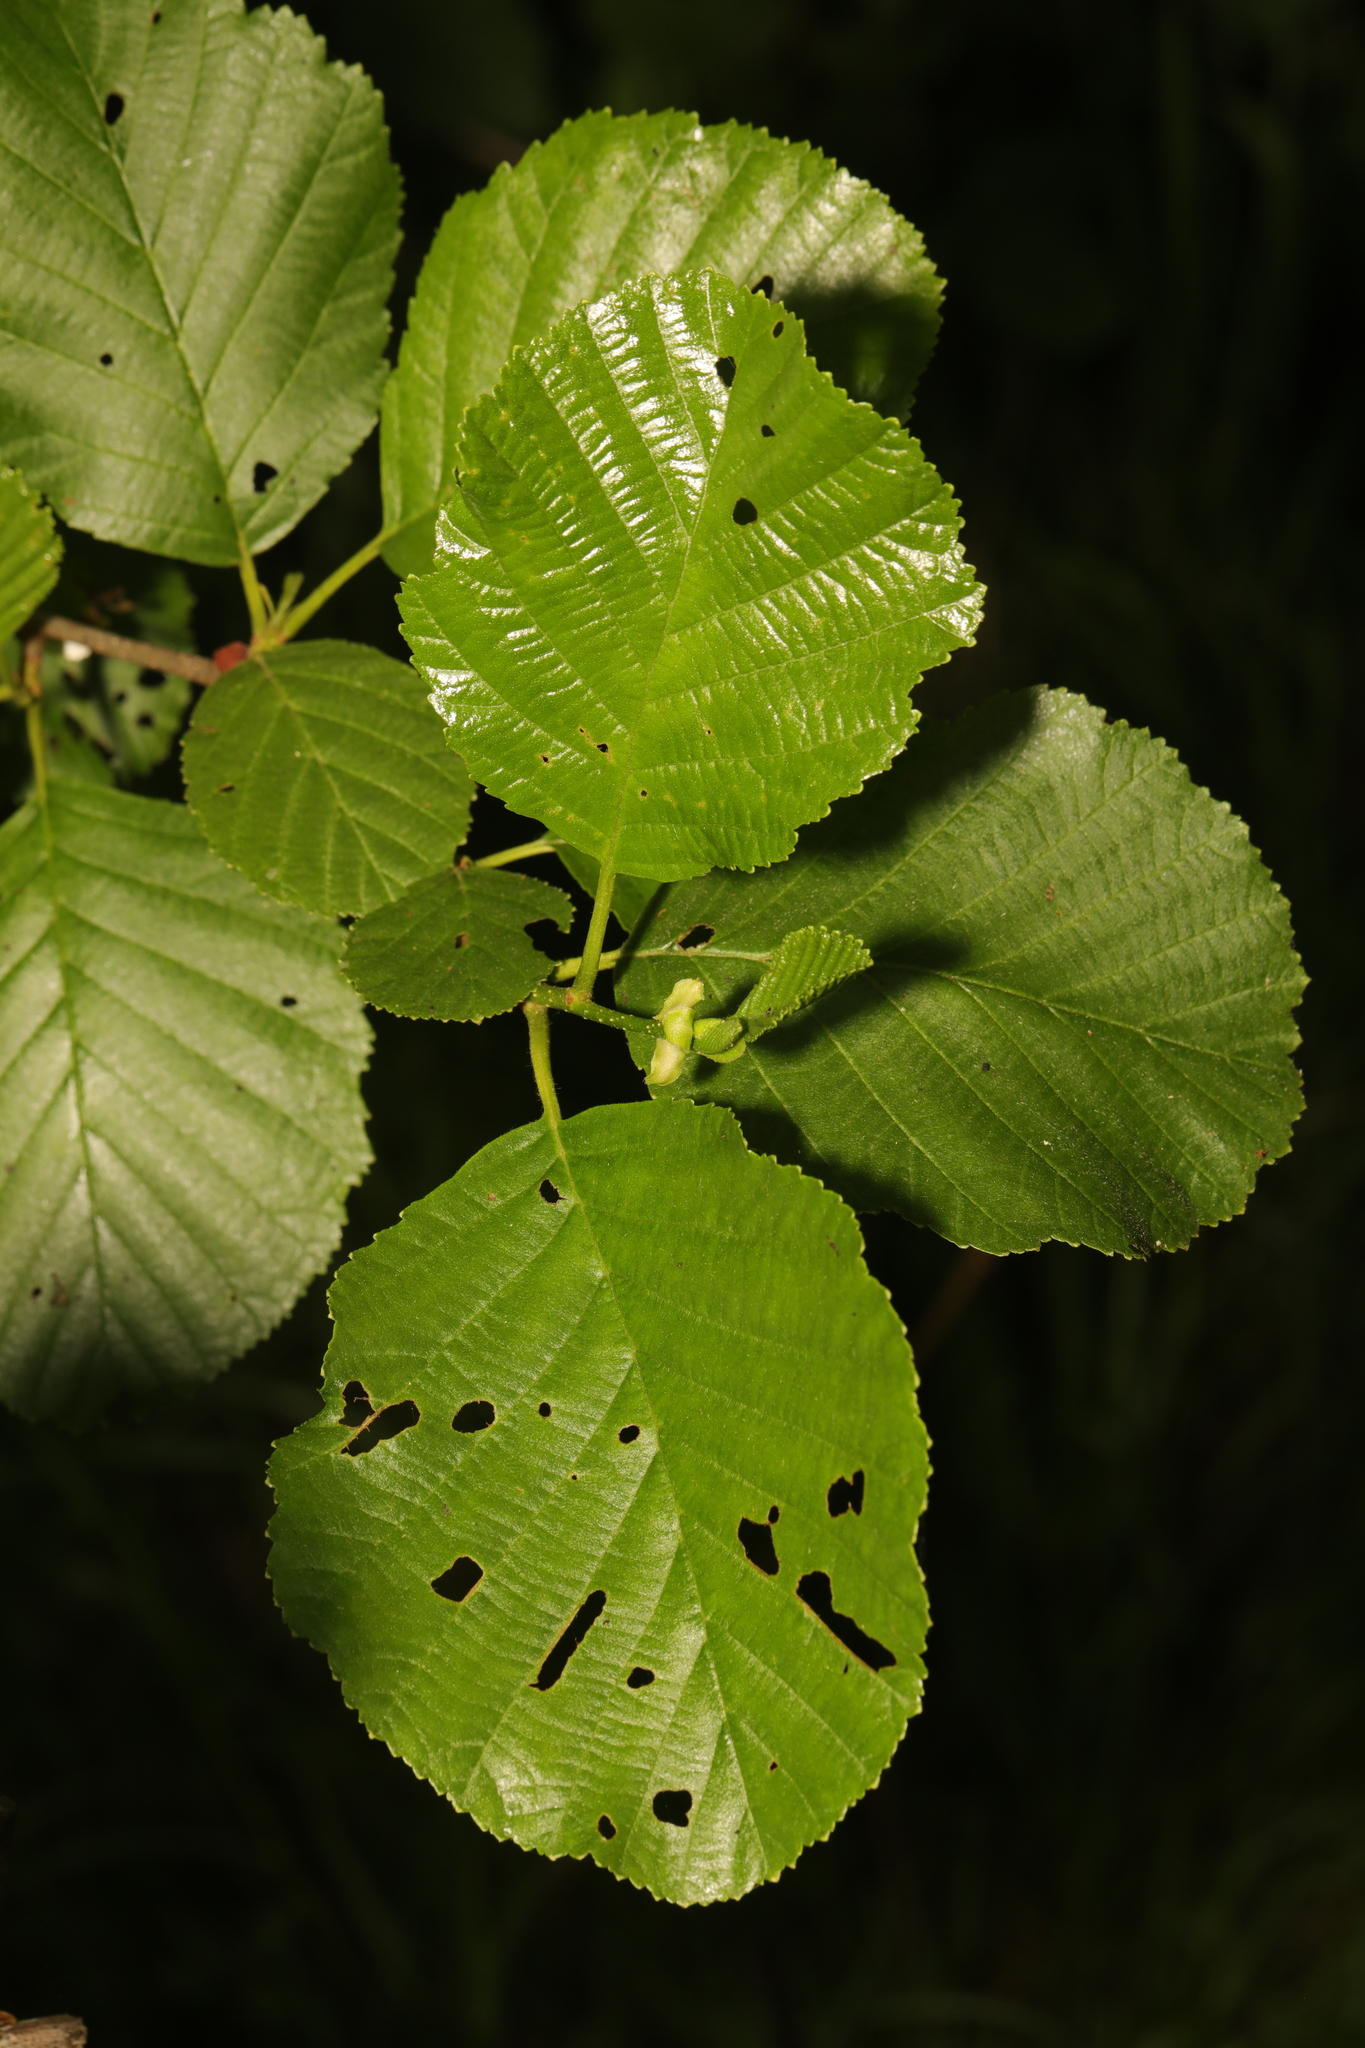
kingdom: Plantae
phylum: Tracheophyta
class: Magnoliopsida
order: Fagales
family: Betulaceae
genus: Alnus
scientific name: Alnus glutinosa
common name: Black alder
